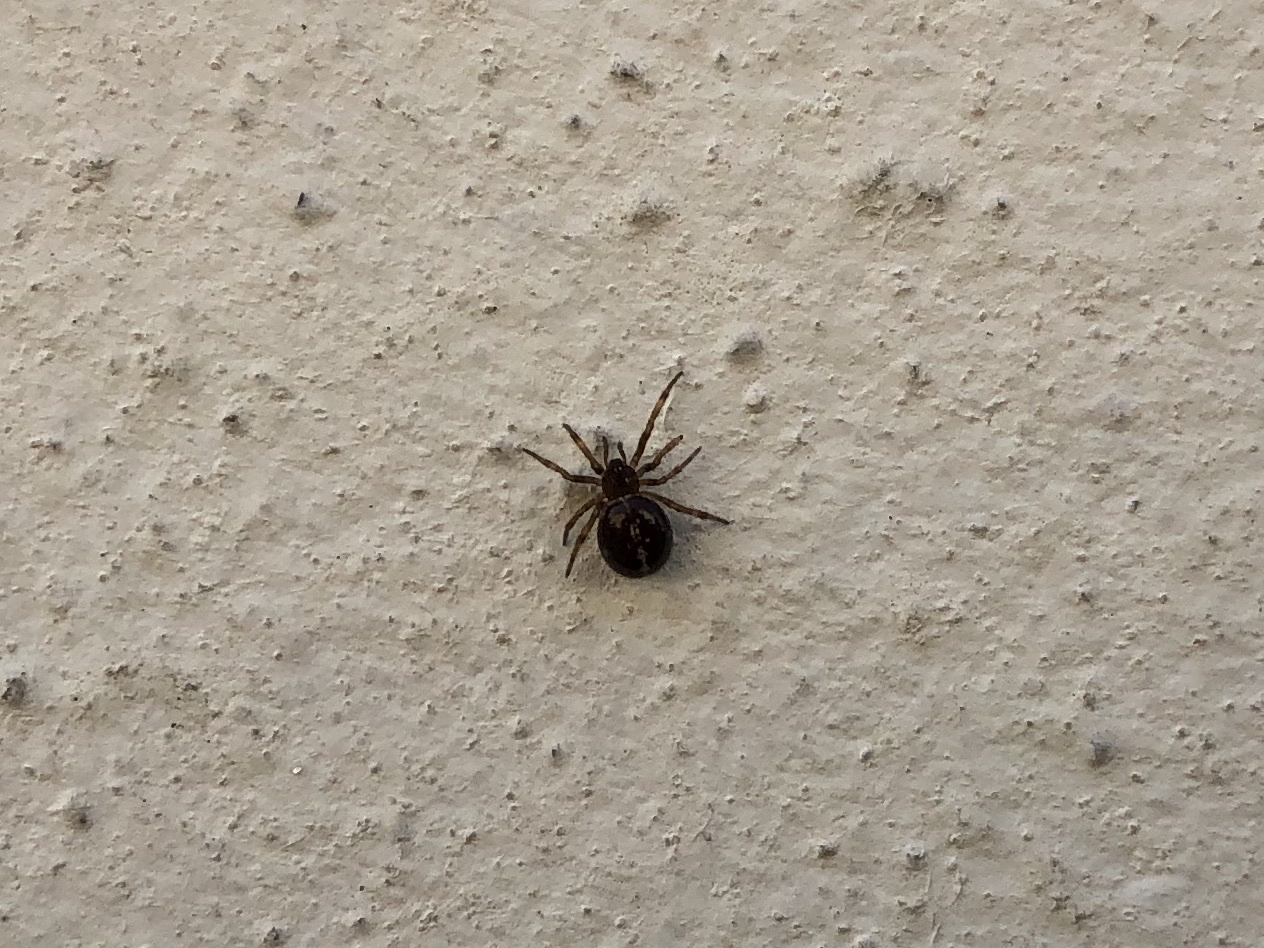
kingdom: Animalia
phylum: Arthropoda
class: Arachnida
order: Araneae
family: Theridiidae
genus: Steatoda
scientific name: Steatoda bipunctata
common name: False widow
